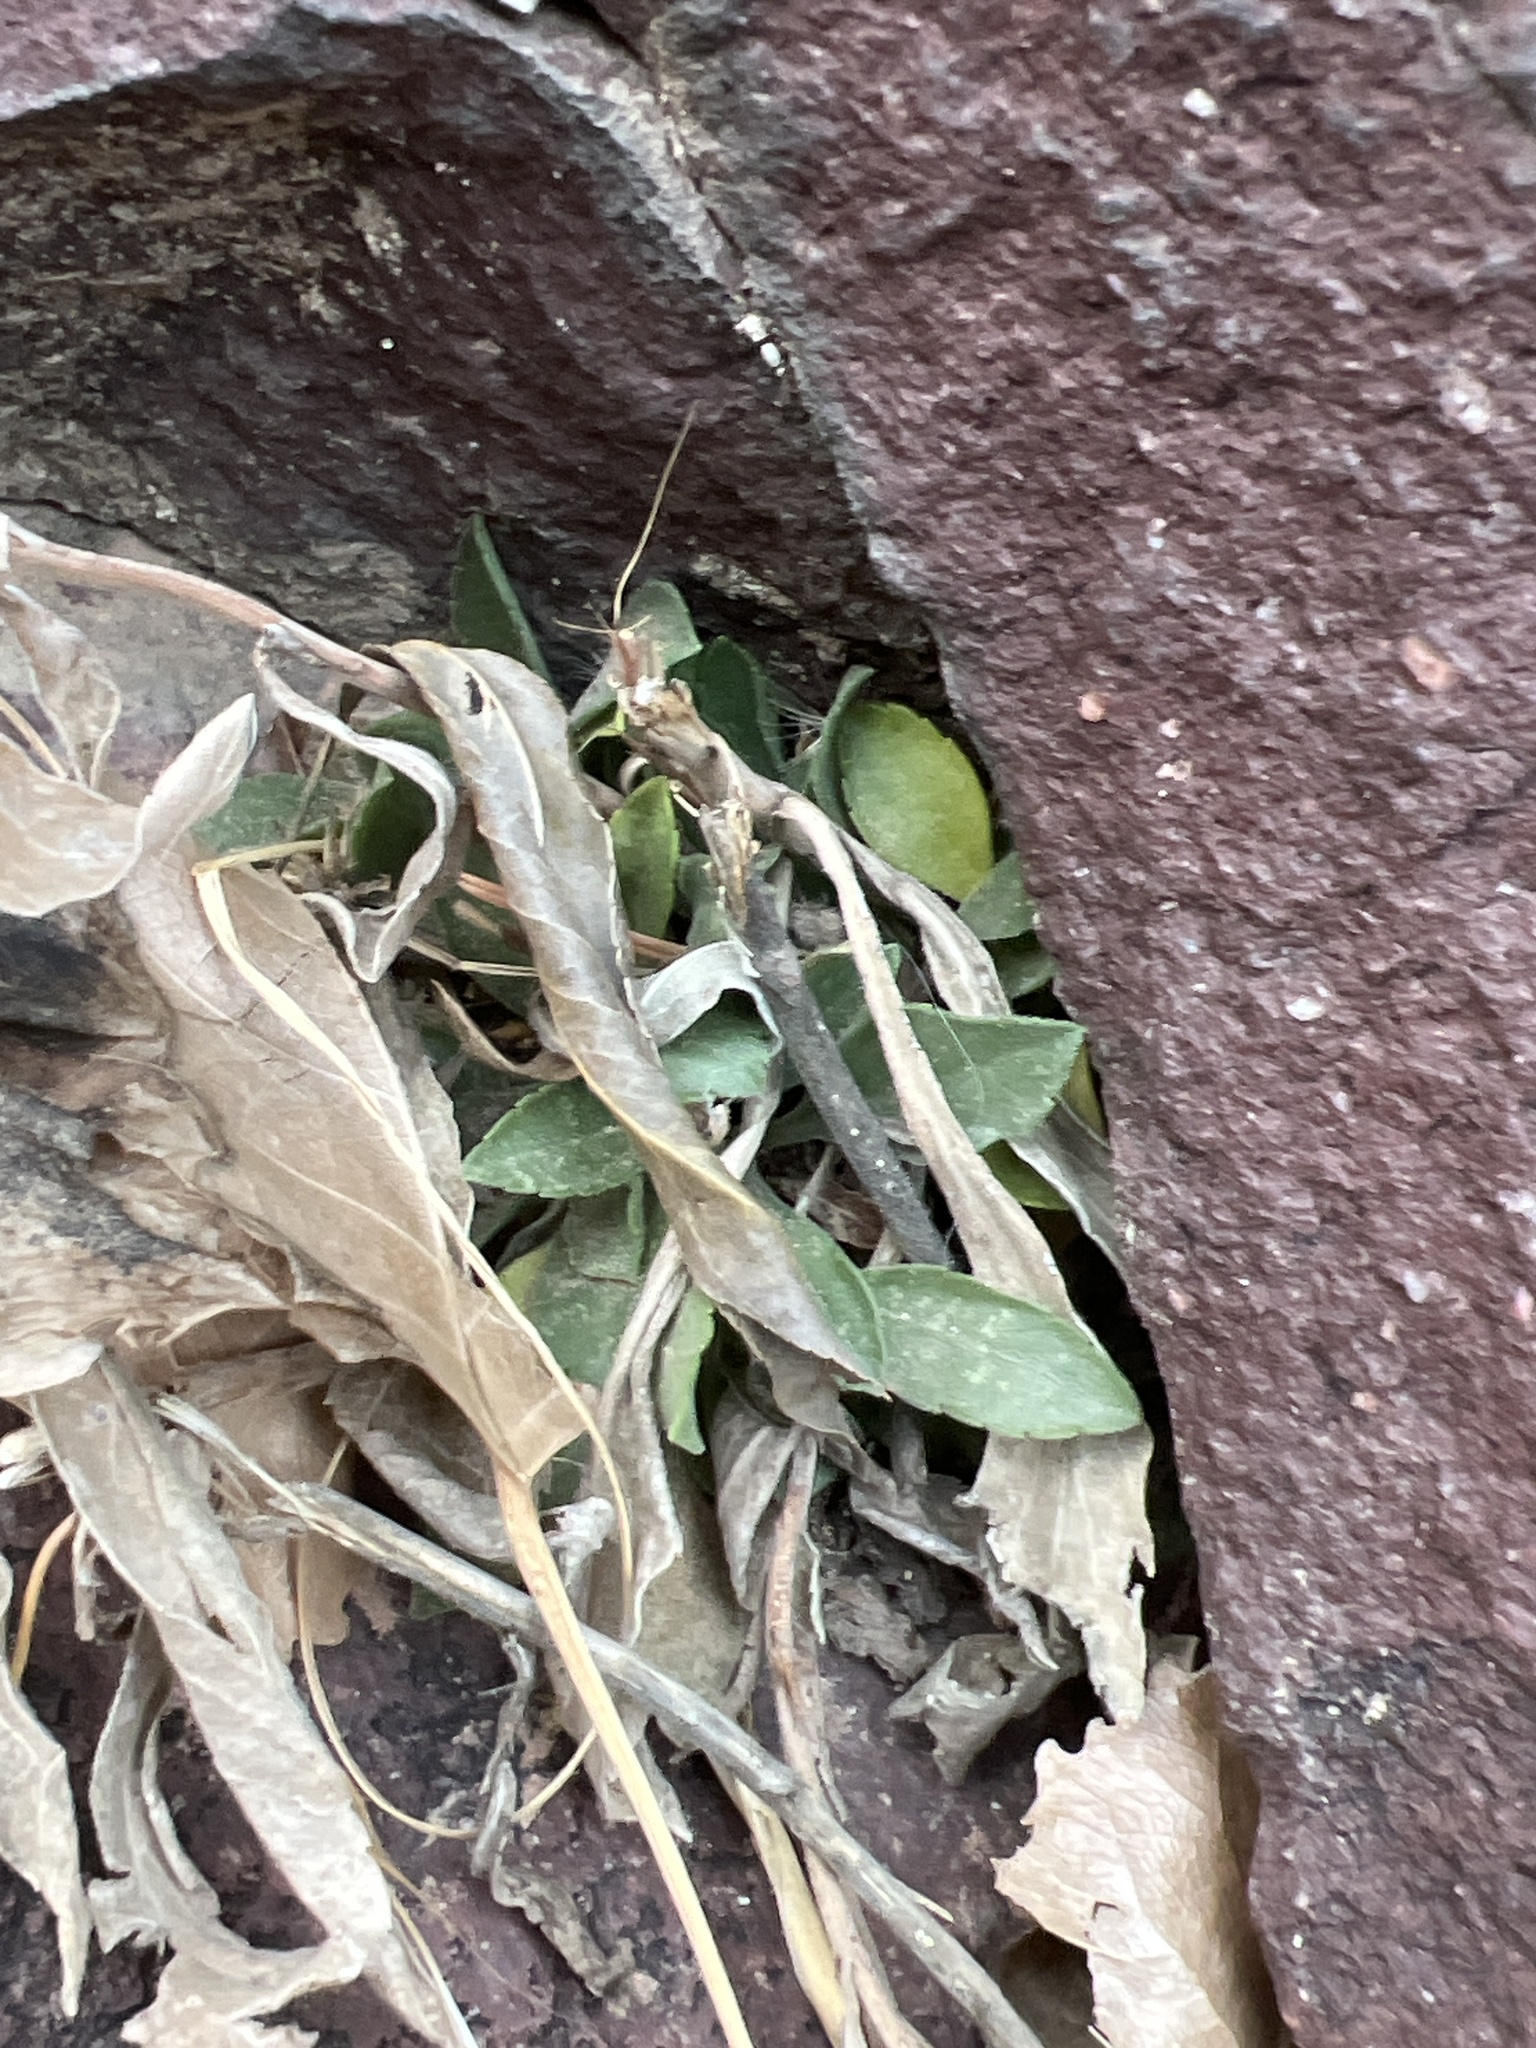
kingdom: Plantae
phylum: Tracheophyta
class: Magnoliopsida
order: Asterales
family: Asteraceae
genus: Solidago
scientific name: Solidago simplex
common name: Sticky goldenrod
